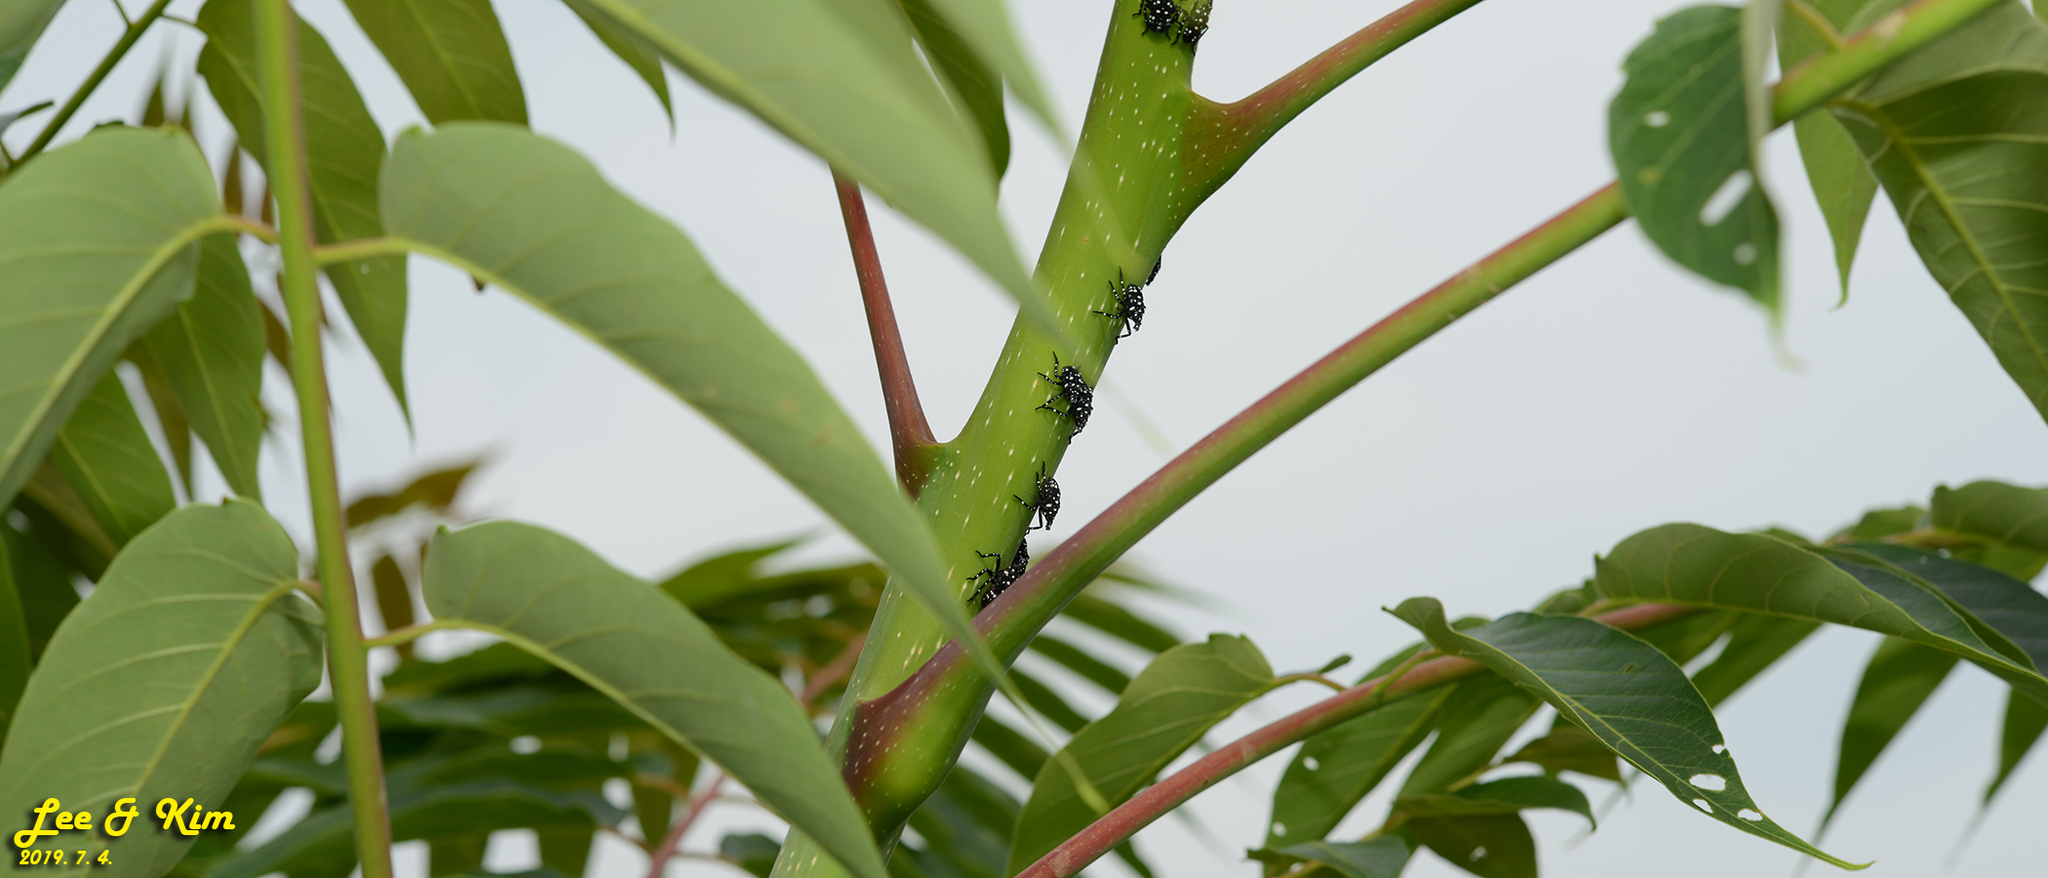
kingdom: Animalia
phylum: Arthropoda
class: Insecta
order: Hemiptera
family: Fulgoridae
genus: Lycorma
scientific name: Lycorma delicatula
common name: Spotted lanternfly
